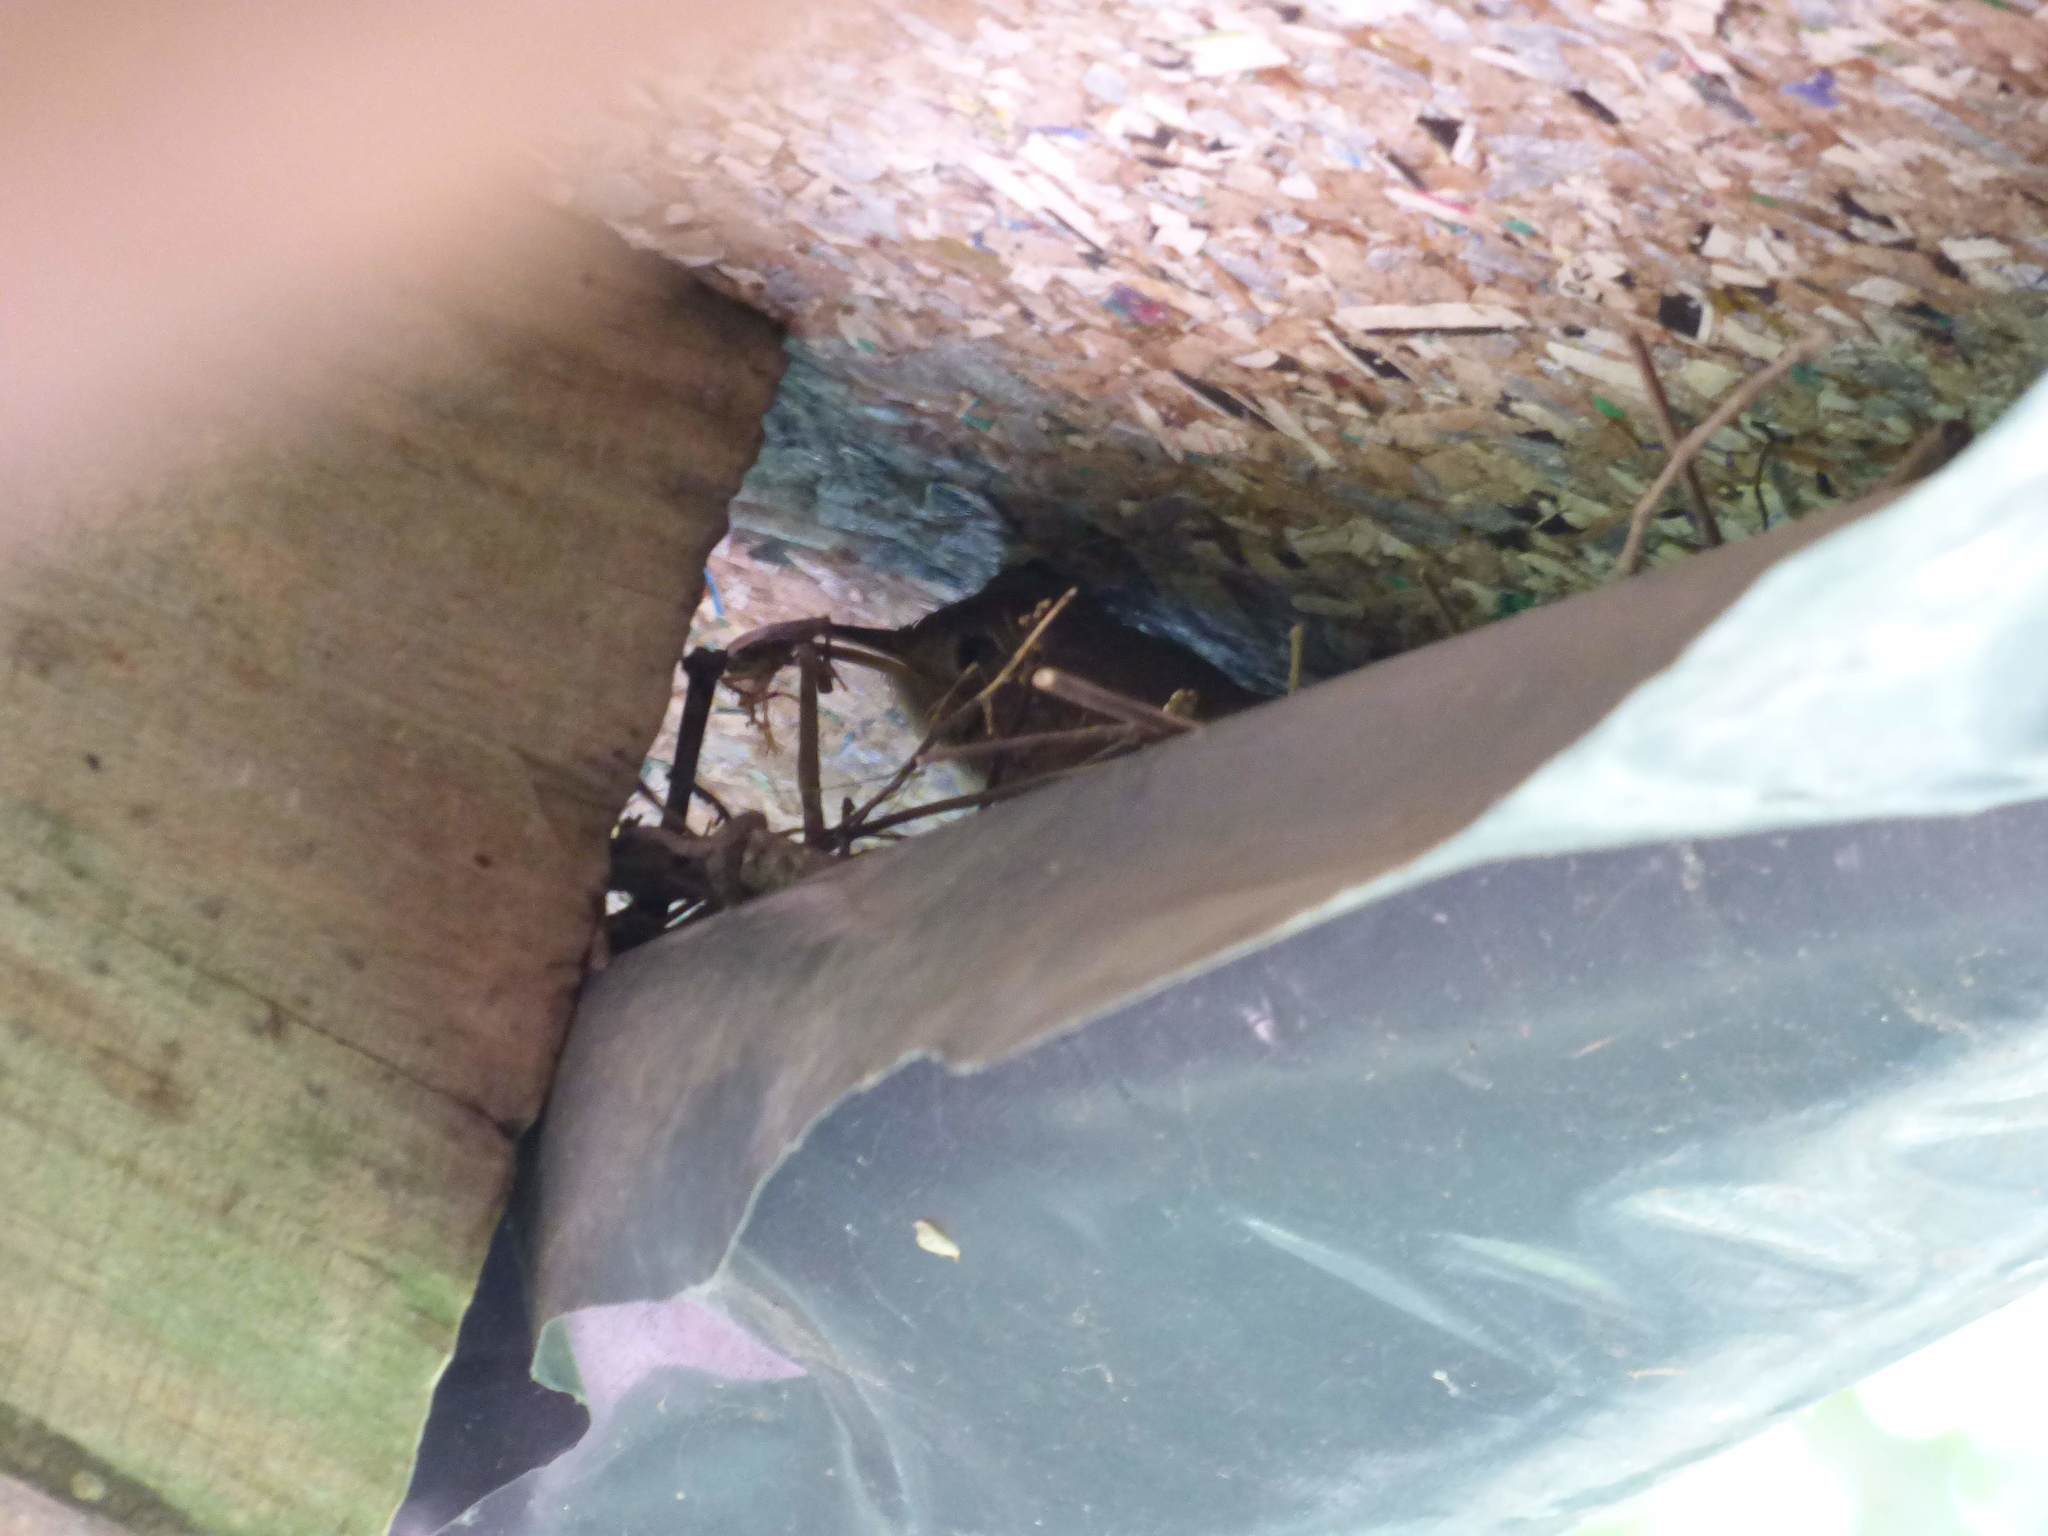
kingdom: Animalia
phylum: Chordata
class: Aves
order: Passeriformes
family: Troglodytidae
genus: Troglodytes
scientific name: Troglodytes aedon
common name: House wren
